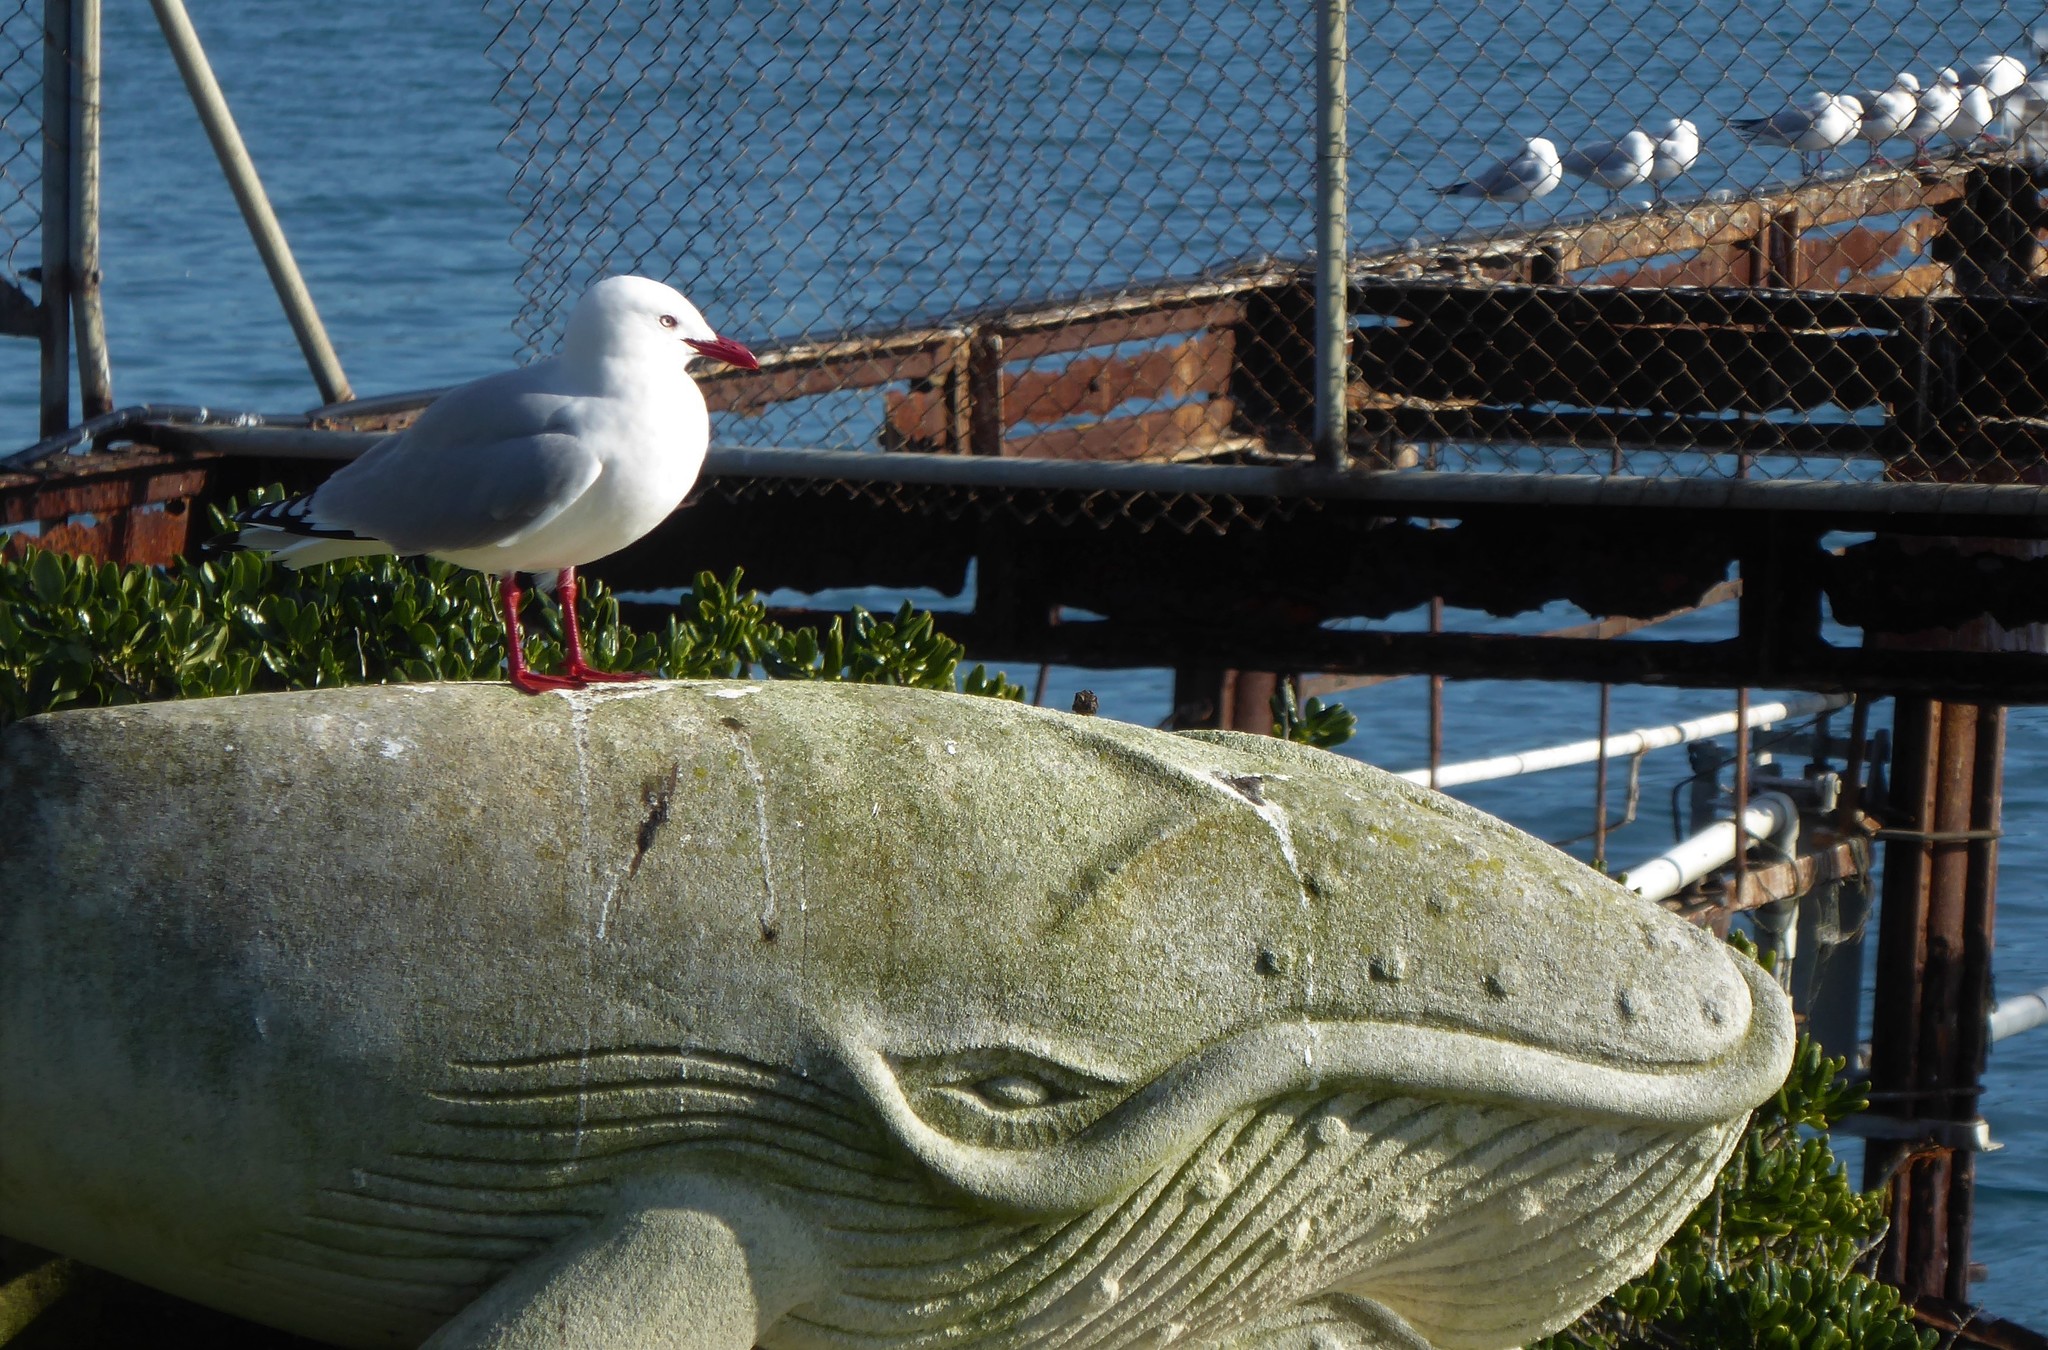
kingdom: Animalia
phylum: Chordata
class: Aves
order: Charadriiformes
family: Laridae
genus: Chroicocephalus
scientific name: Chroicocephalus novaehollandiae
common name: Silver gull
